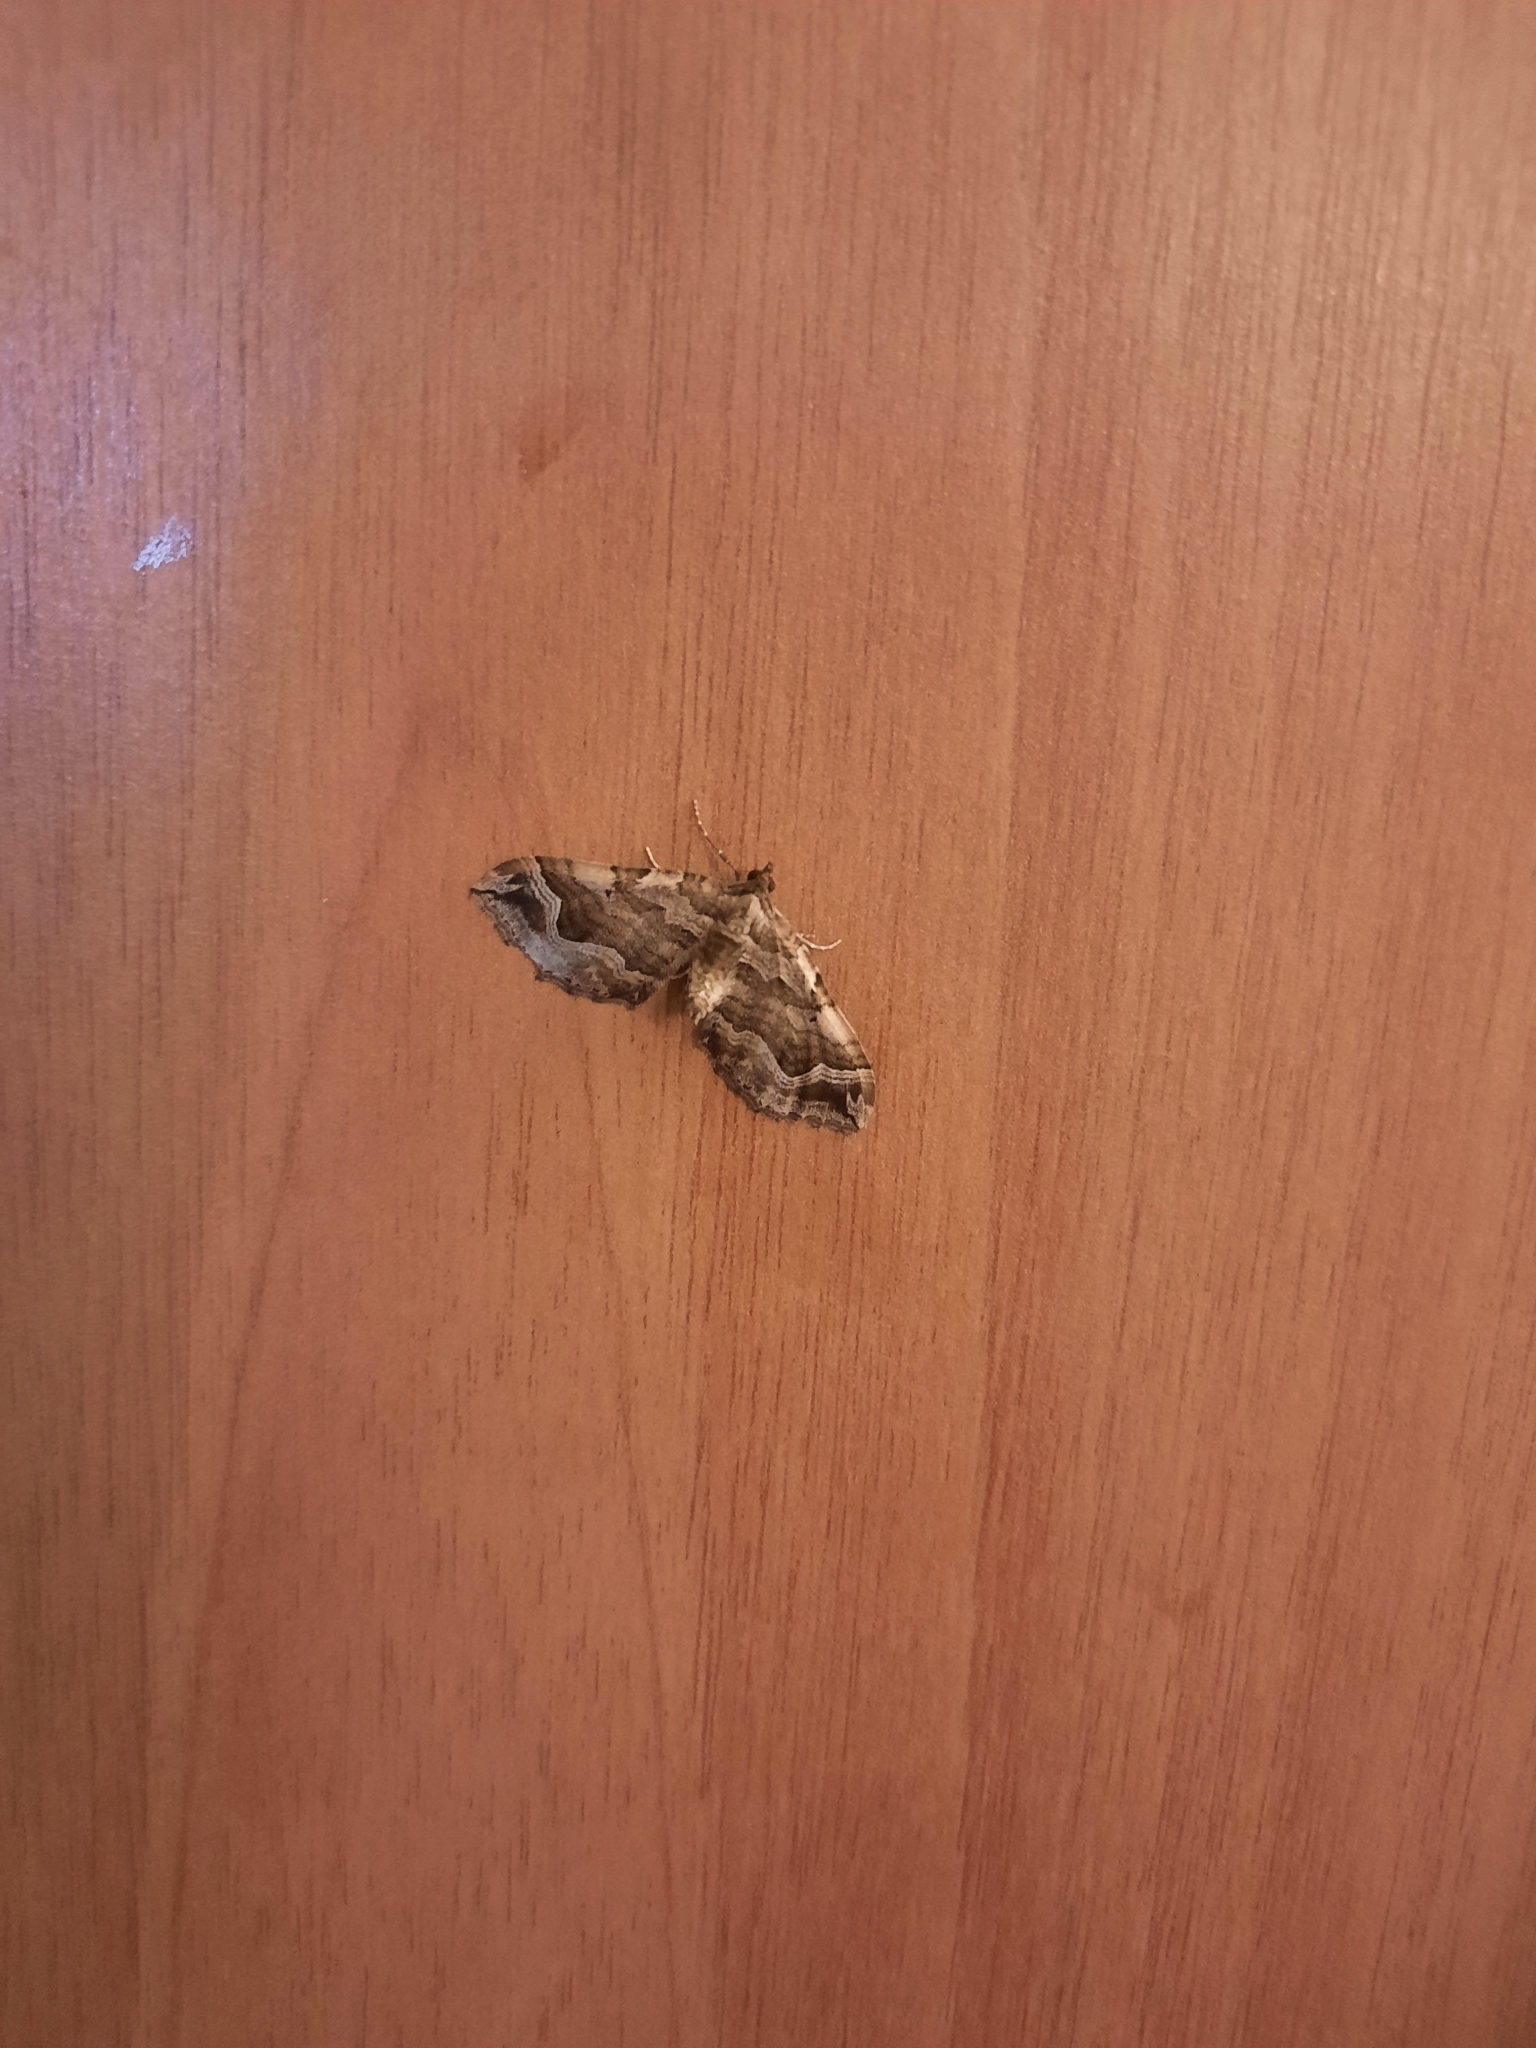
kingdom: Animalia
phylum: Arthropoda
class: Insecta
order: Lepidoptera
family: Geometridae
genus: Pelurga
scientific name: Pelurga comitata
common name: Dark spinach
